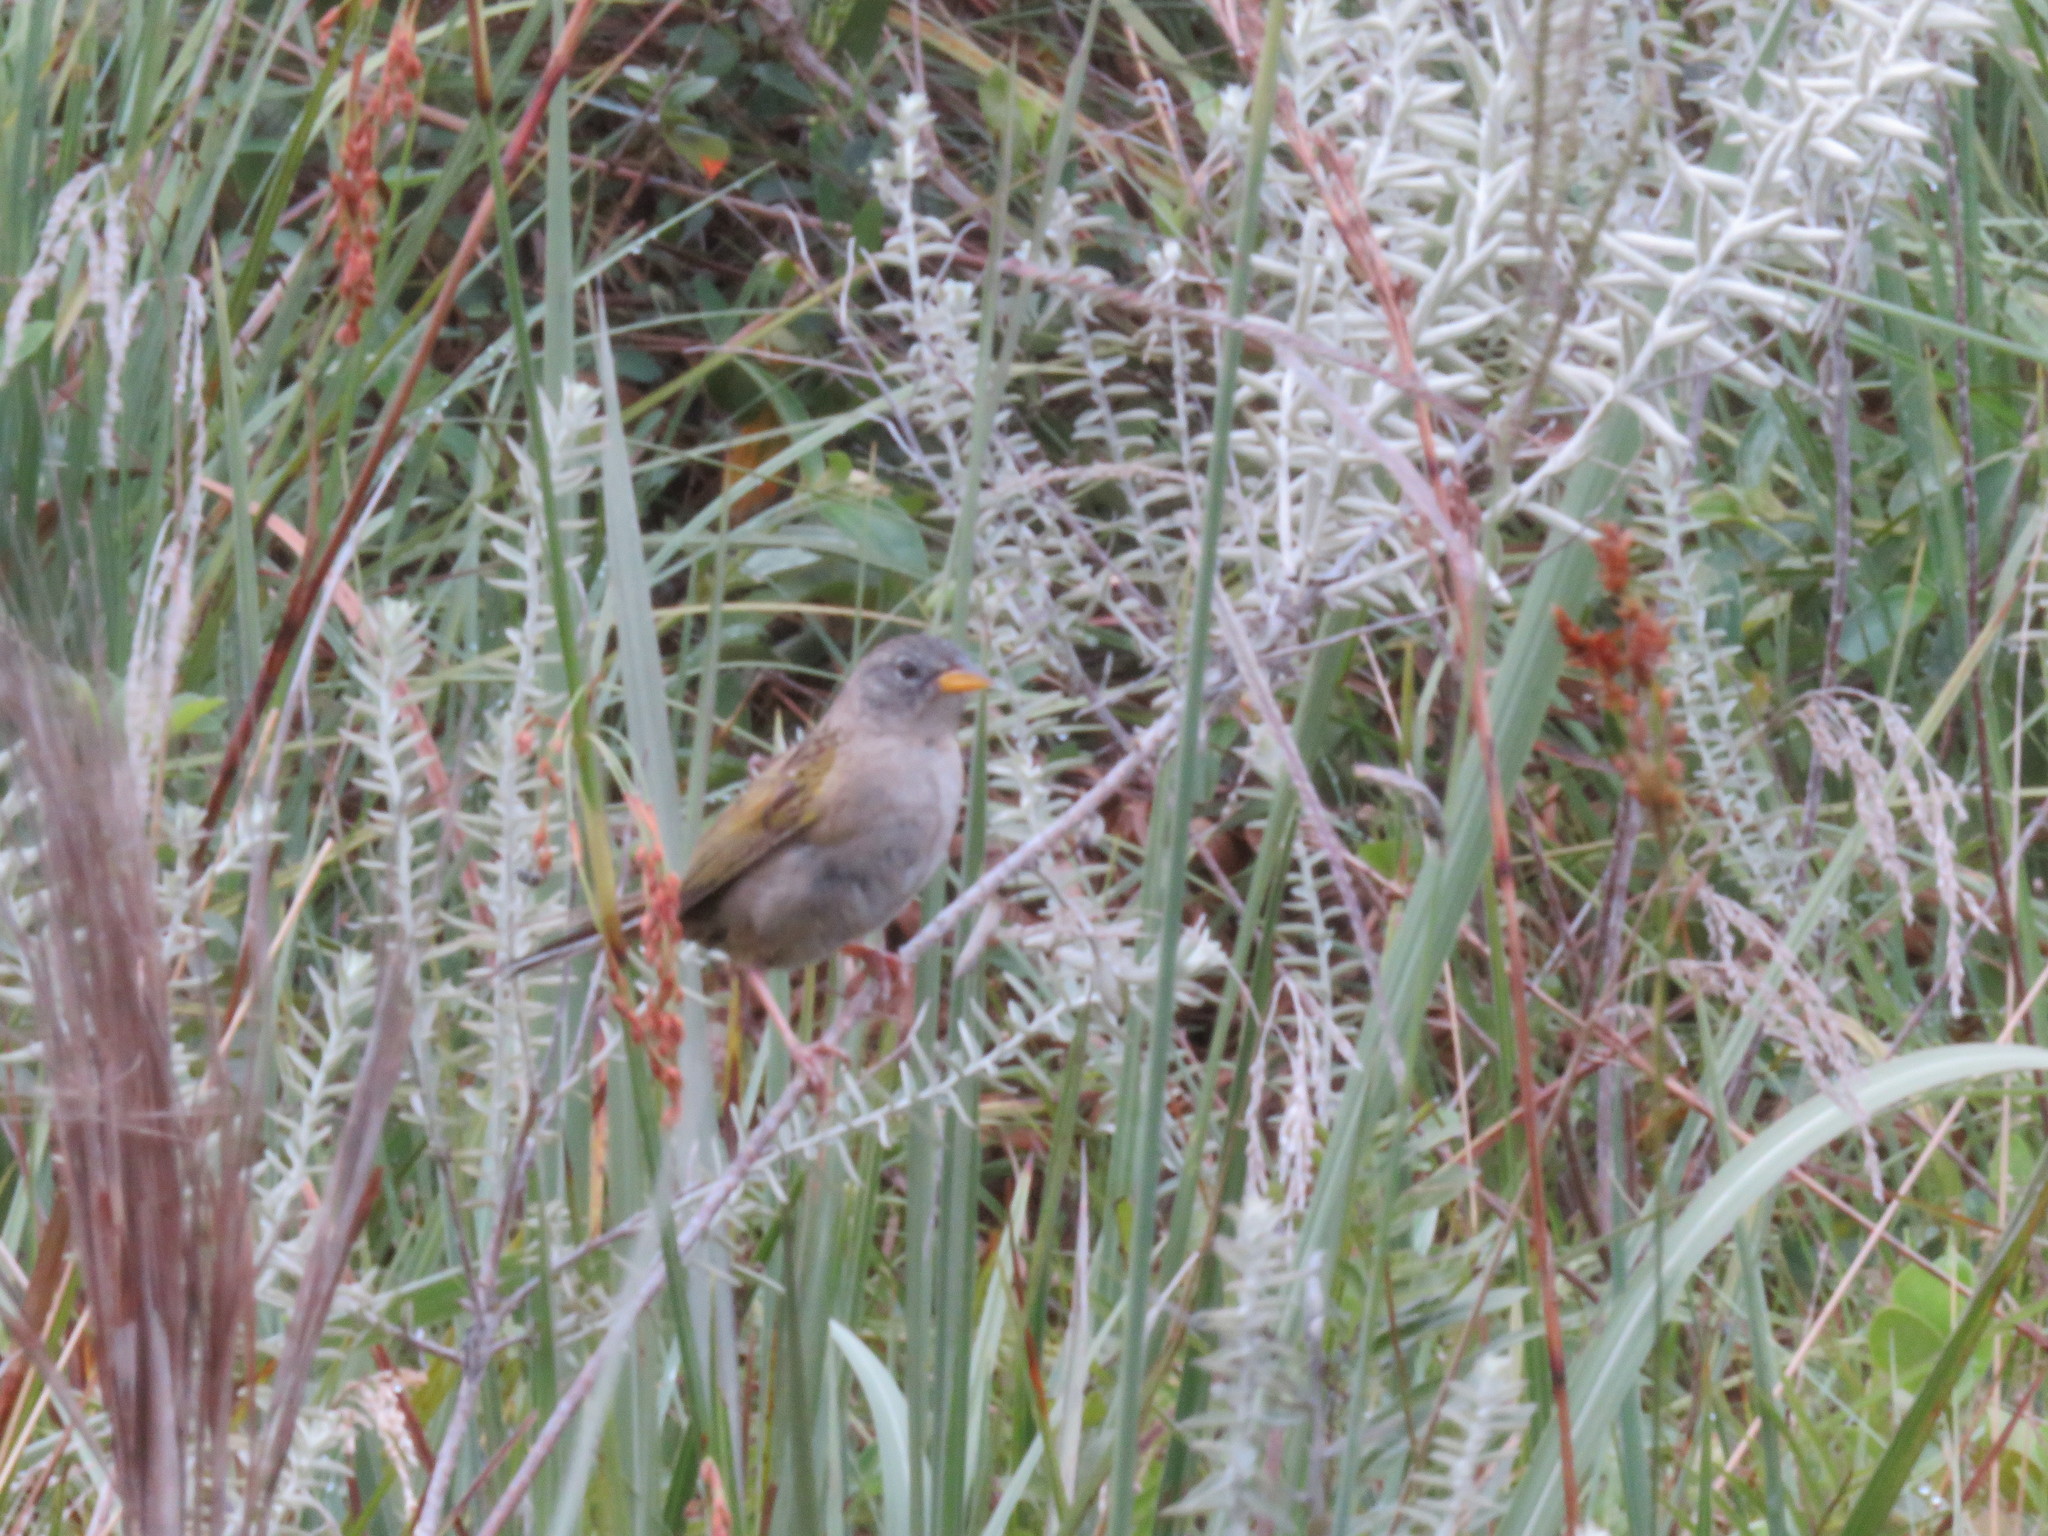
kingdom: Animalia
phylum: Chordata
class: Aves
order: Passeriformes
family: Thraupidae
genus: Emberizoides
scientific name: Emberizoides ypiranganus
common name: Lesser grass finch
